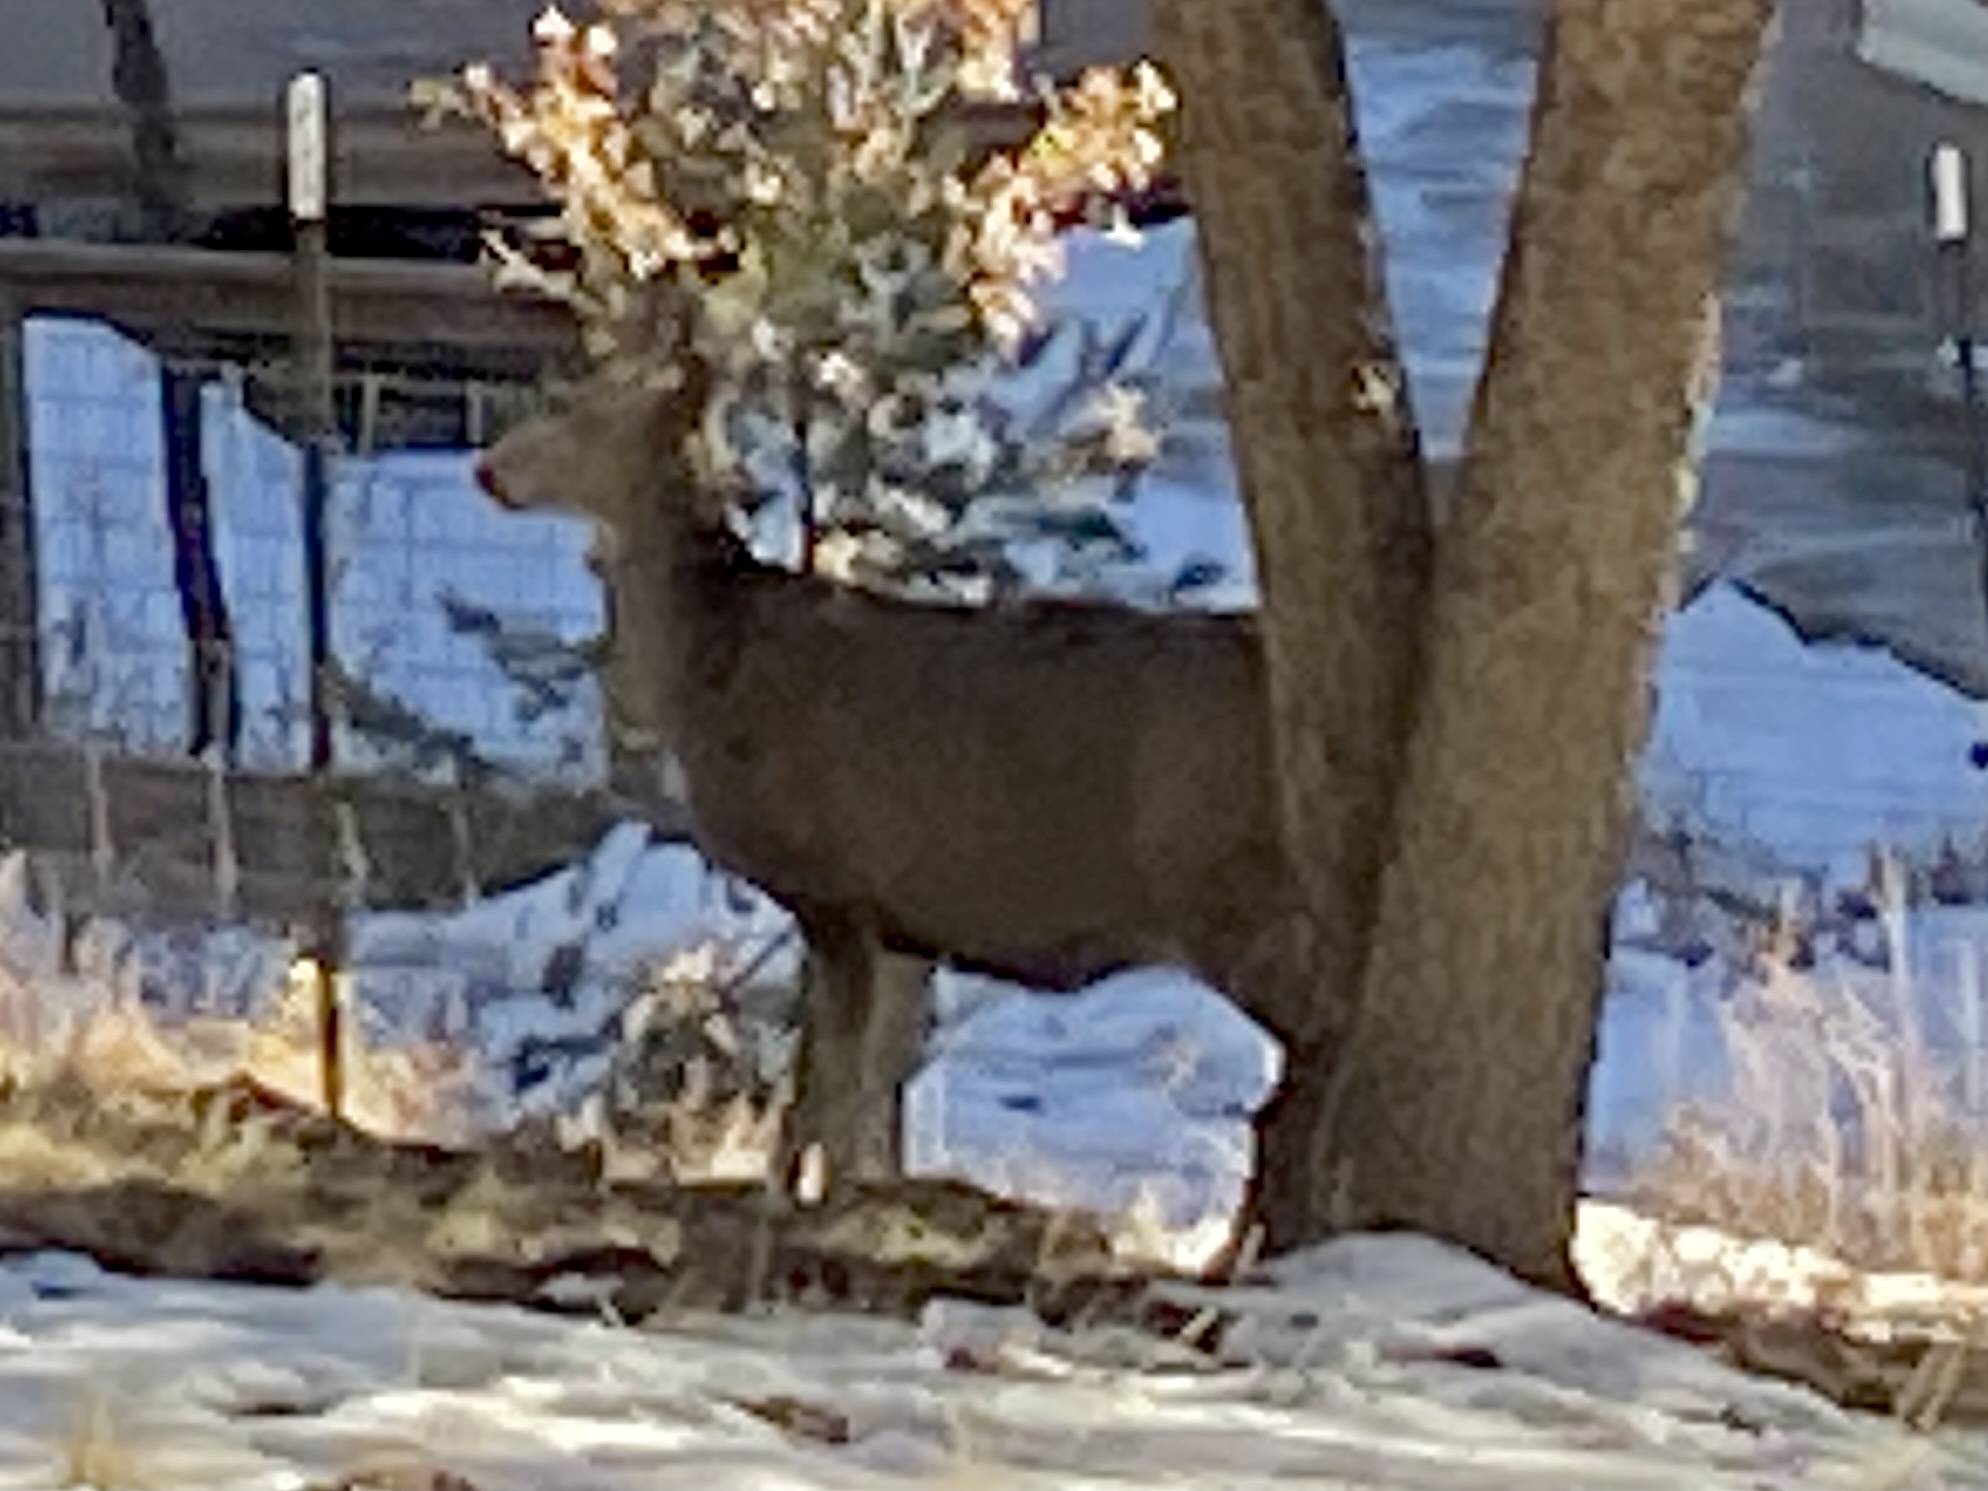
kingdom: Animalia
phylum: Chordata
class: Mammalia
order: Artiodactyla
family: Cervidae
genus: Odocoileus
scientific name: Odocoileus hemionus
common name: Mule deer
